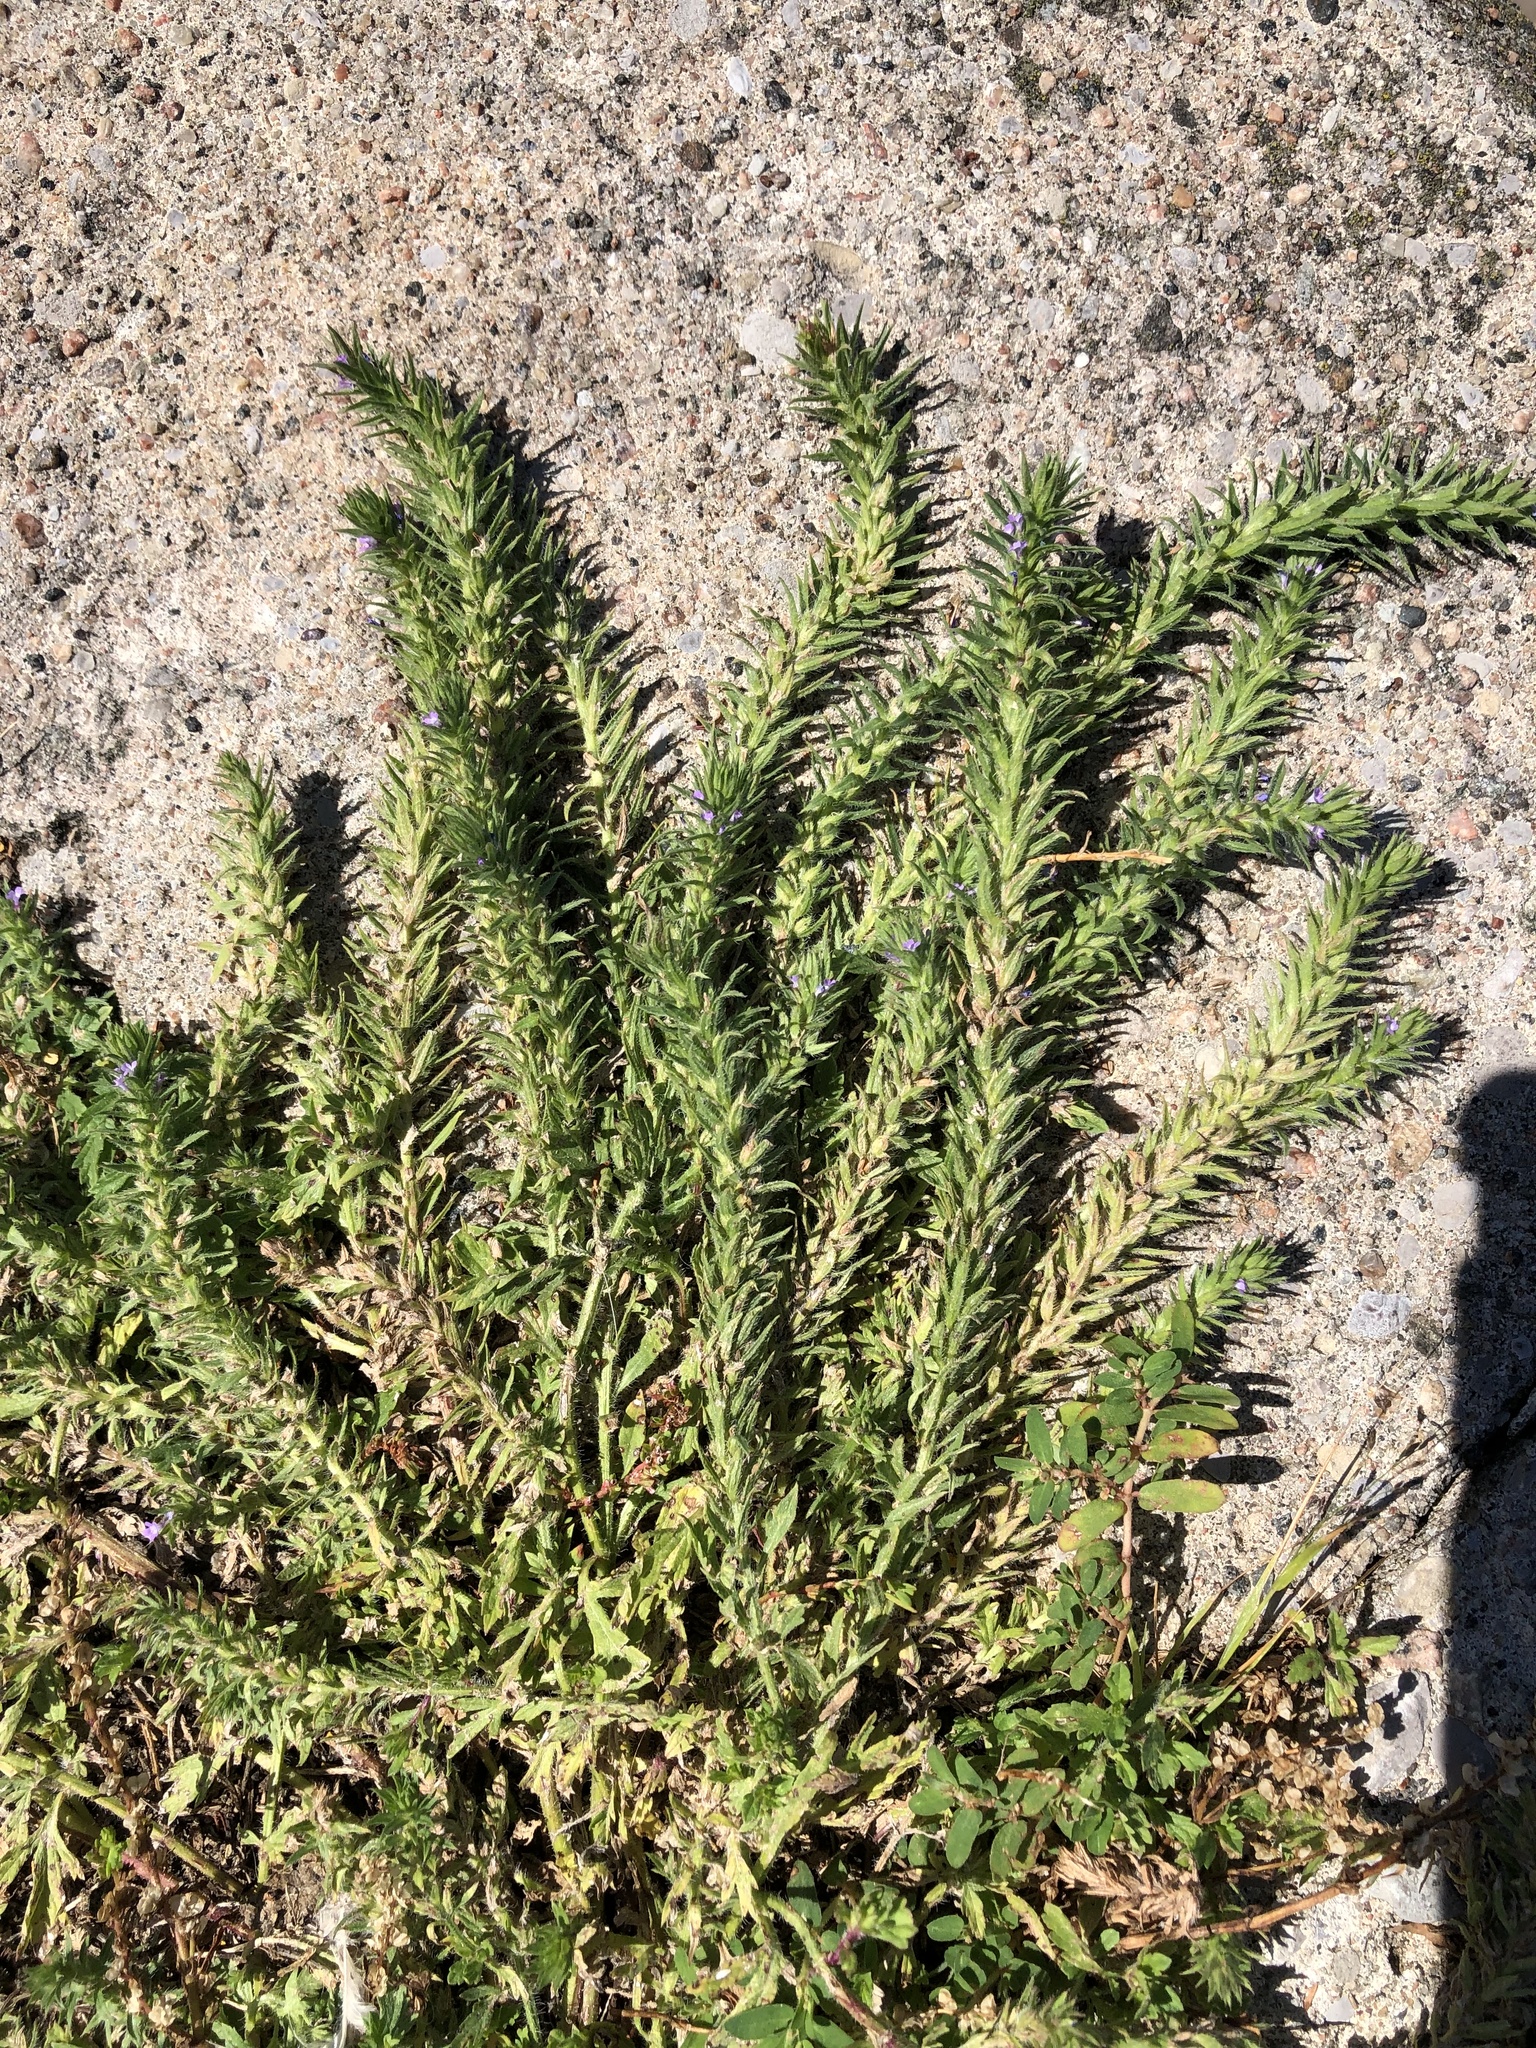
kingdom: Plantae
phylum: Tracheophyta
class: Magnoliopsida
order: Lamiales
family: Verbenaceae
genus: Verbena
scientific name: Verbena bracteata
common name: Bracted vervain
